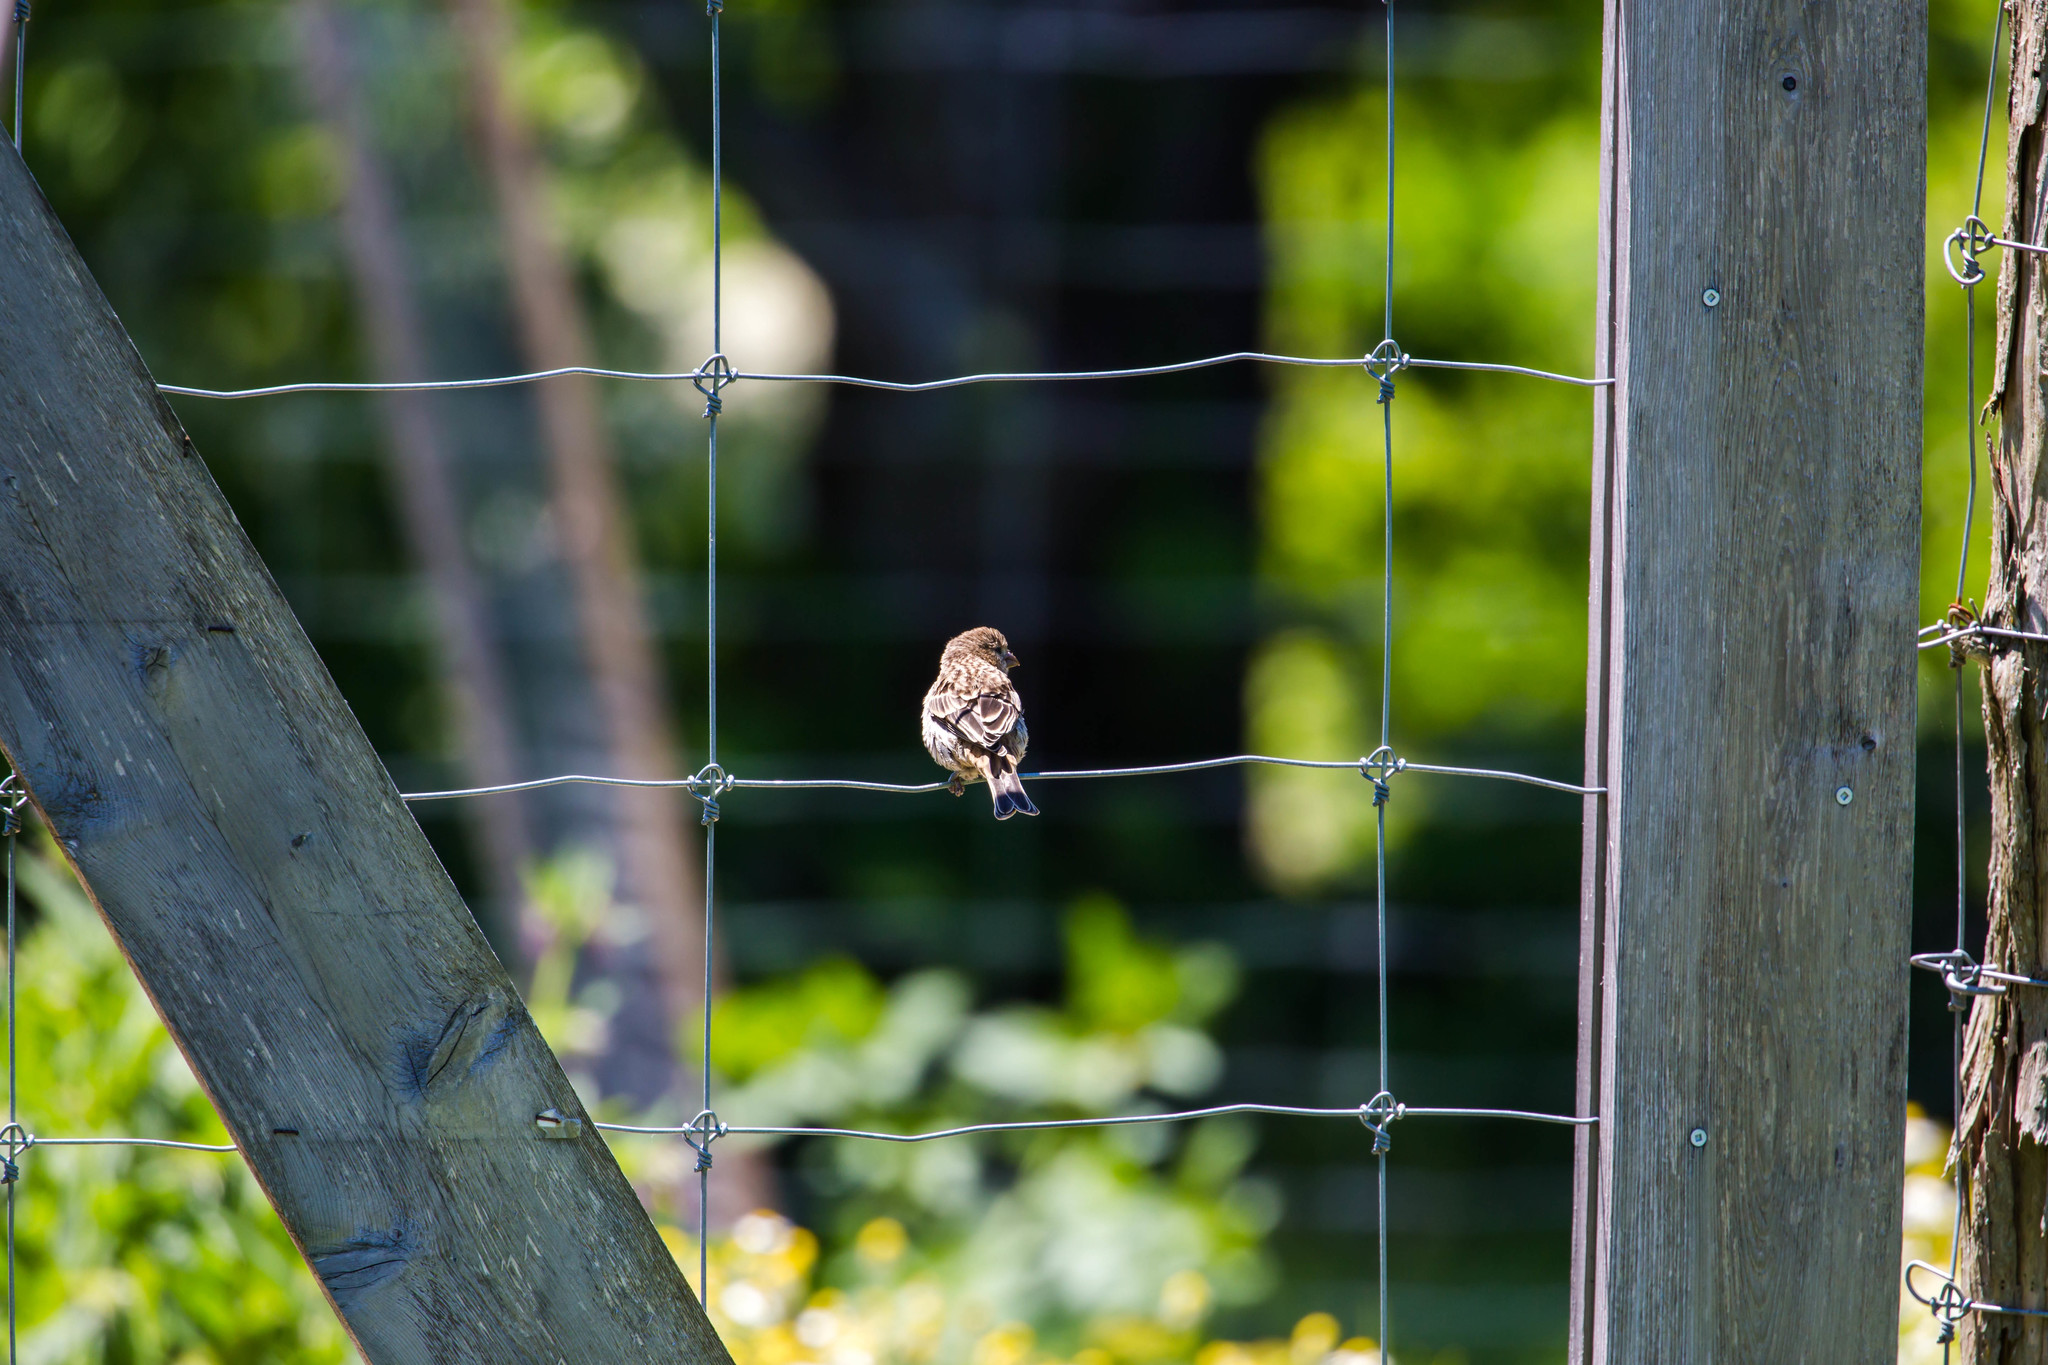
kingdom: Animalia
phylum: Chordata
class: Aves
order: Passeriformes
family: Fringillidae
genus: Haemorhous
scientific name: Haemorhous mexicanus
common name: House finch
